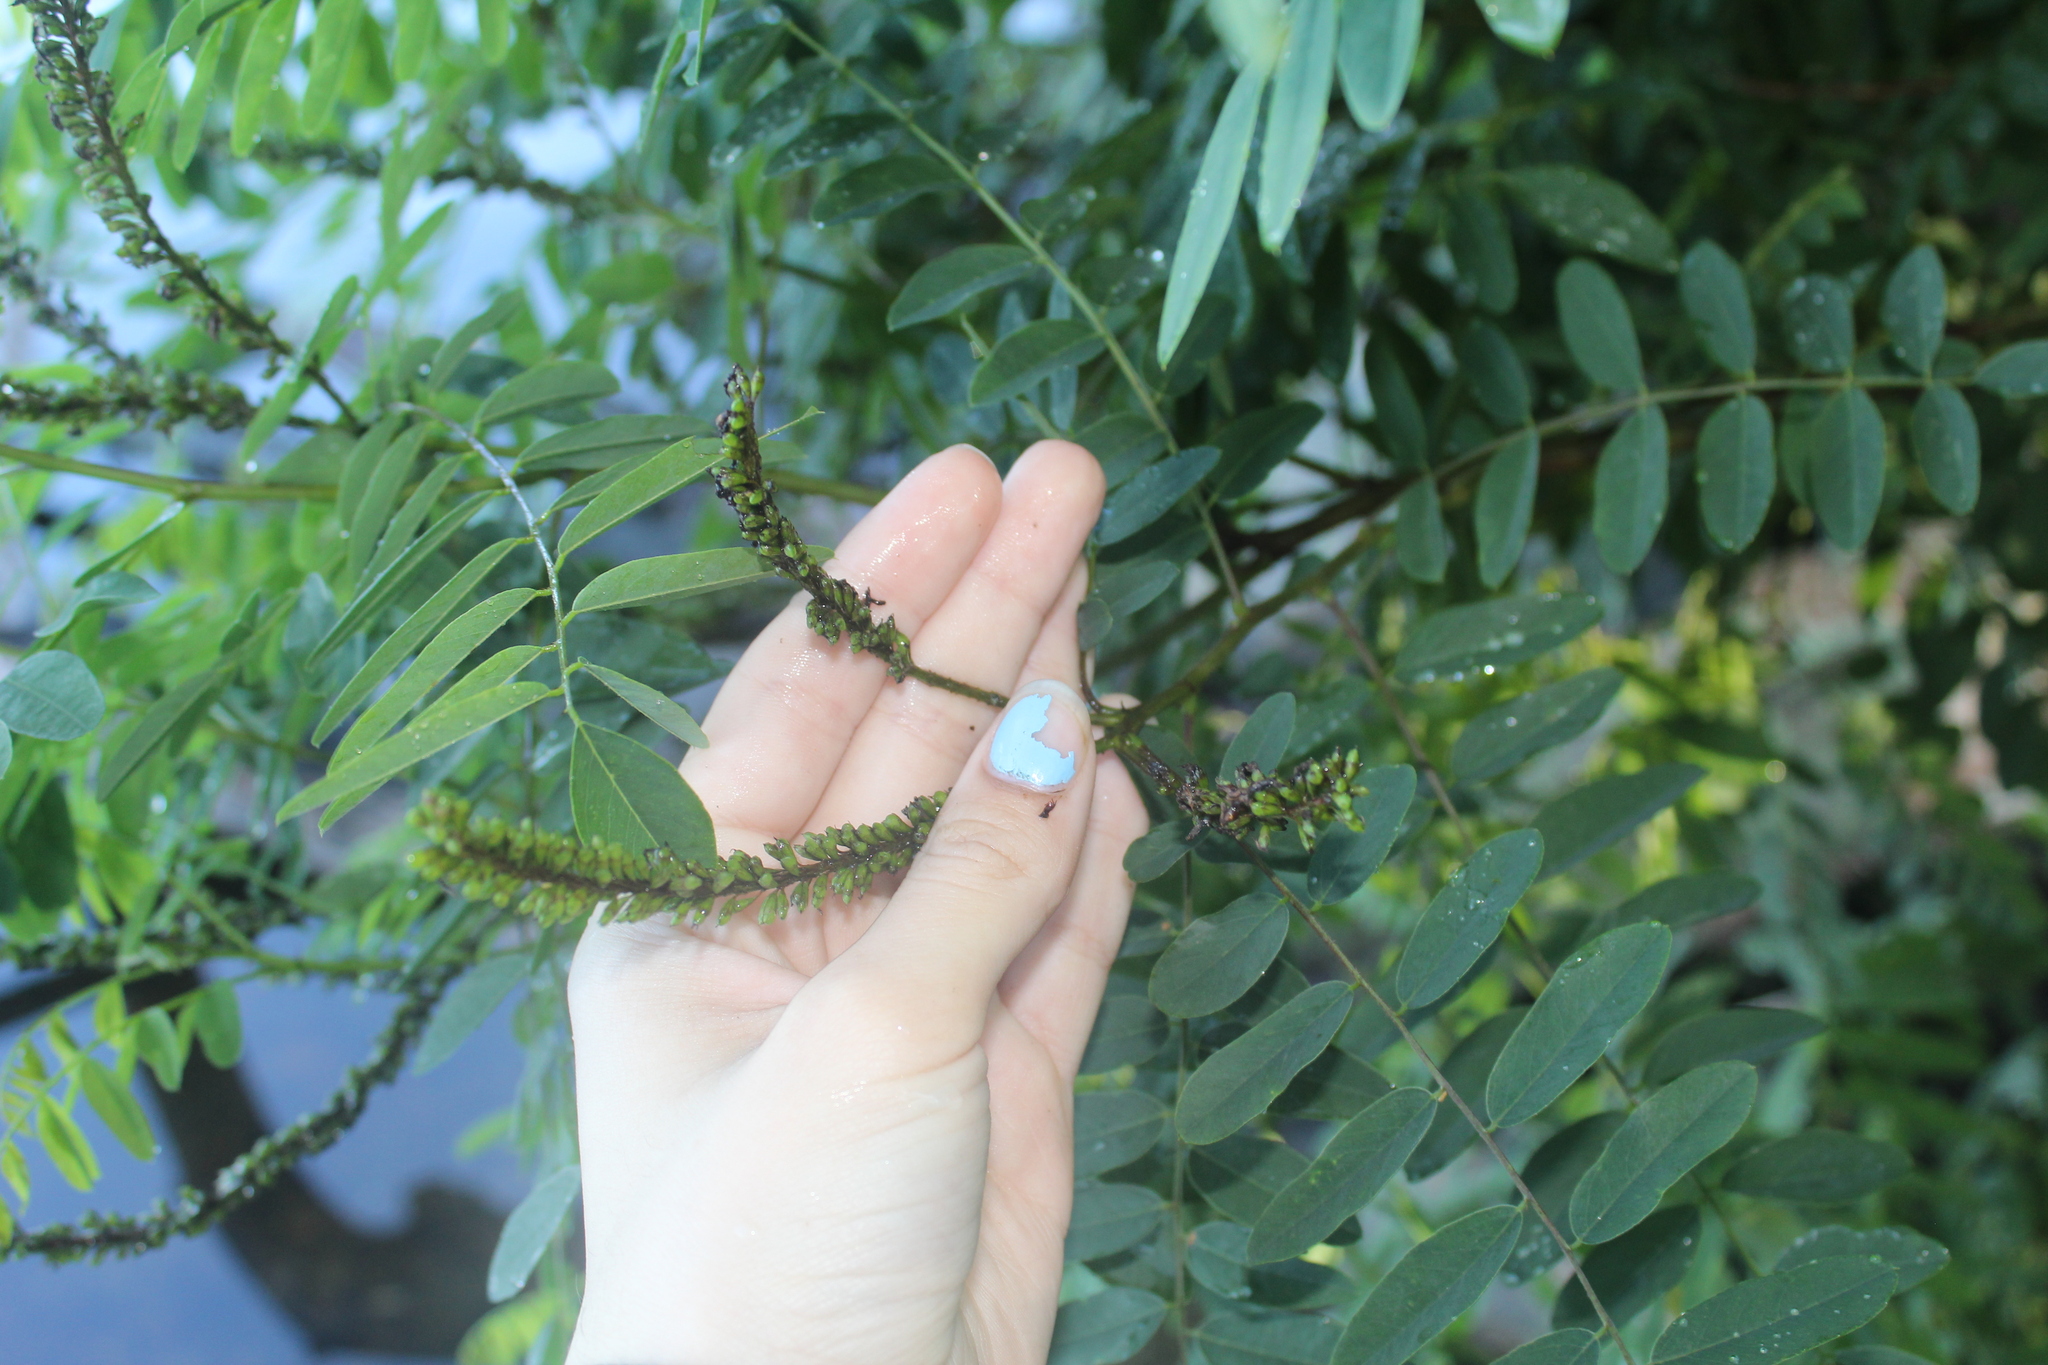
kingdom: Plantae
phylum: Tracheophyta
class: Magnoliopsida
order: Fabales
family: Fabaceae
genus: Amorpha
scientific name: Amorpha fruticosa
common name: False indigo
